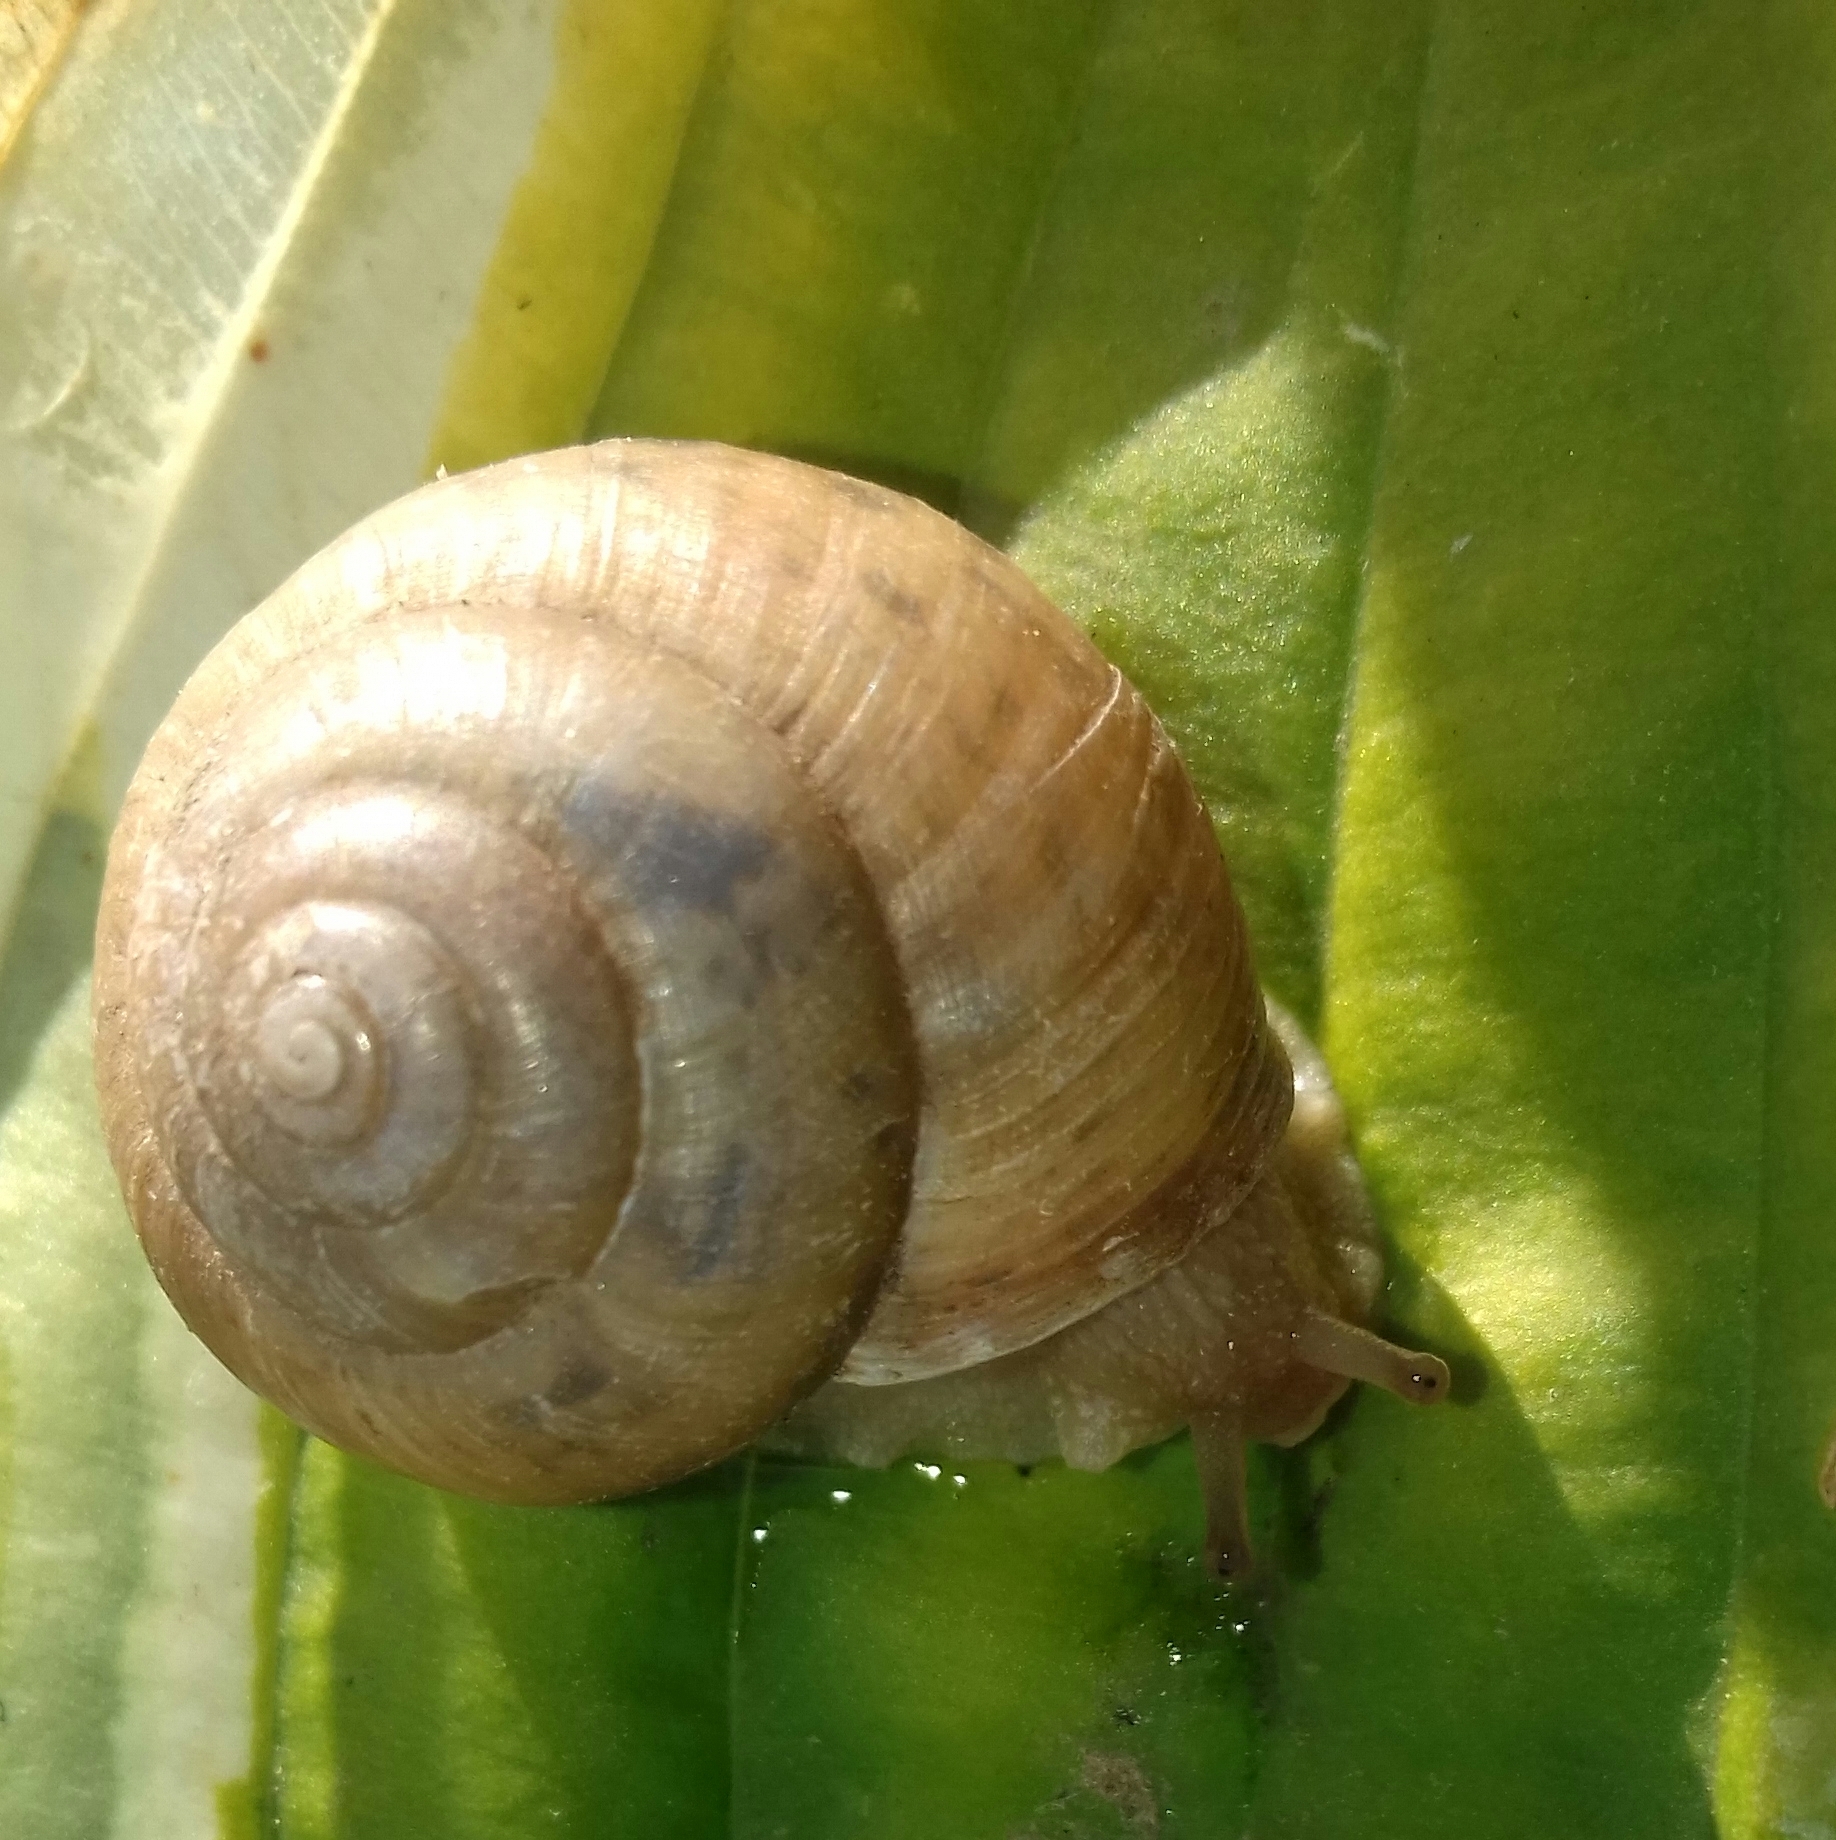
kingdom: Animalia
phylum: Mollusca
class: Gastropoda
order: Stylommatophora
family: Camaenidae
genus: Fruticicola
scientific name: Fruticicola fruticum
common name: Bush snail
